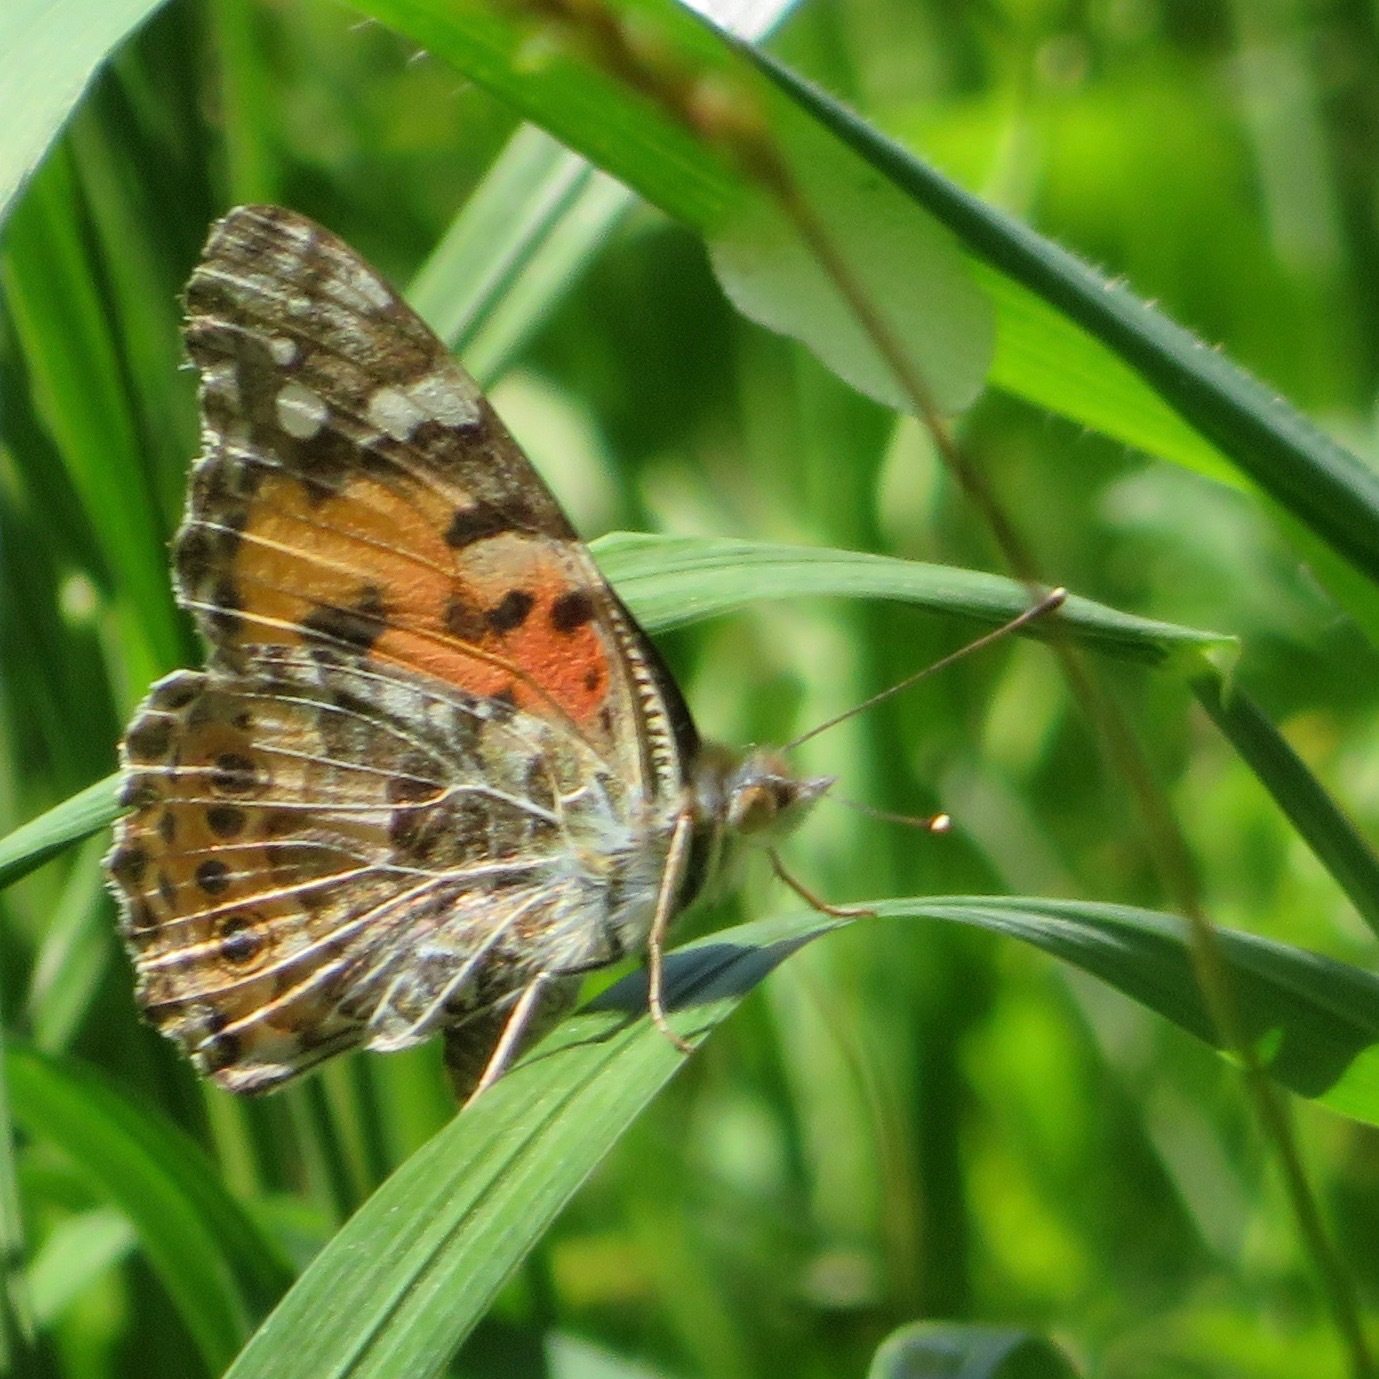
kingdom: Animalia
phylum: Arthropoda
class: Insecta
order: Lepidoptera
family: Nymphalidae
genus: Vanessa
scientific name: Vanessa cardui
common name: Painted lady
